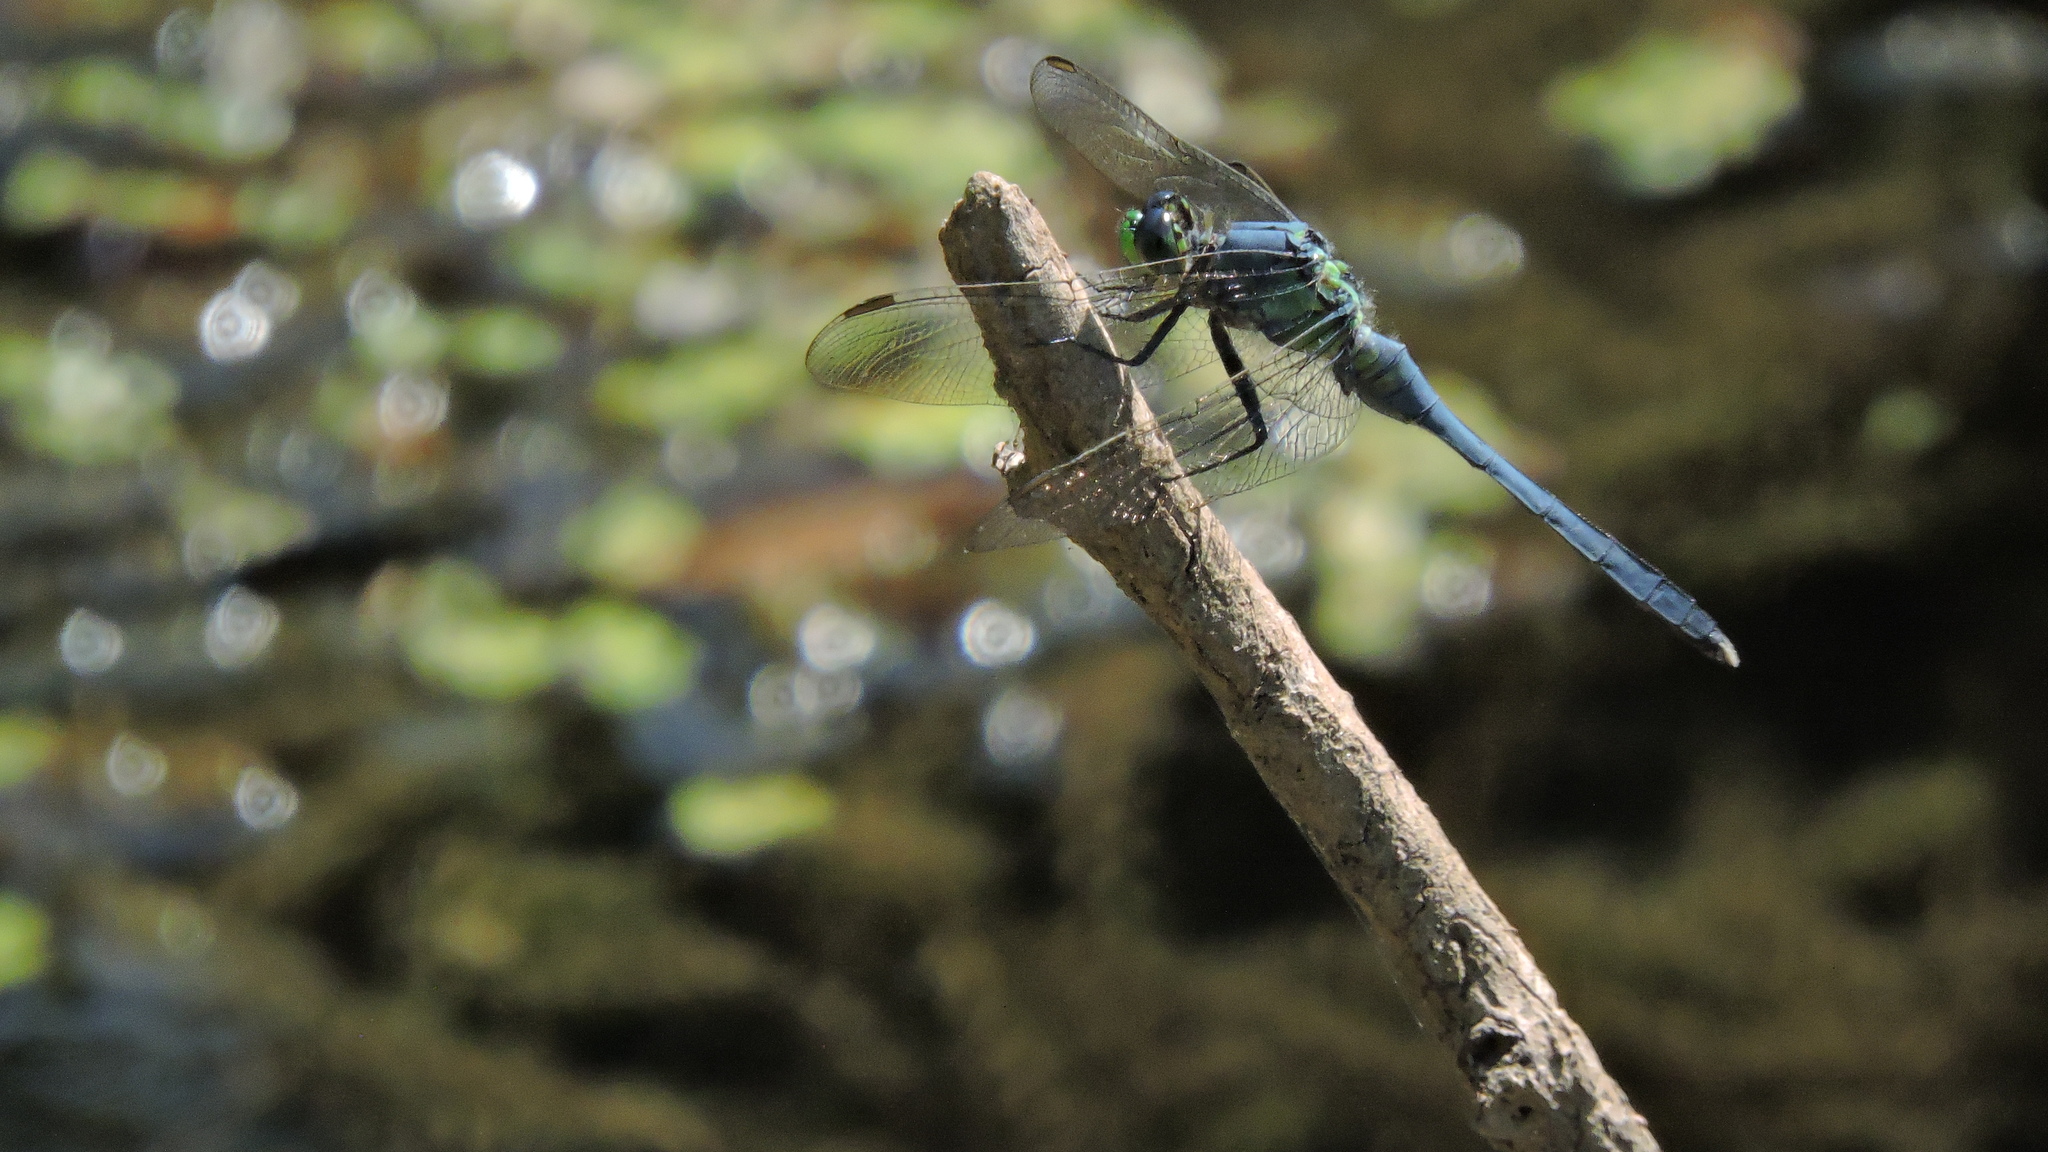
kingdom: Animalia
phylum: Arthropoda
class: Insecta
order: Odonata
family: Libellulidae
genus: Erythemis
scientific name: Erythemis simplicicollis
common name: Eastern pondhawk
